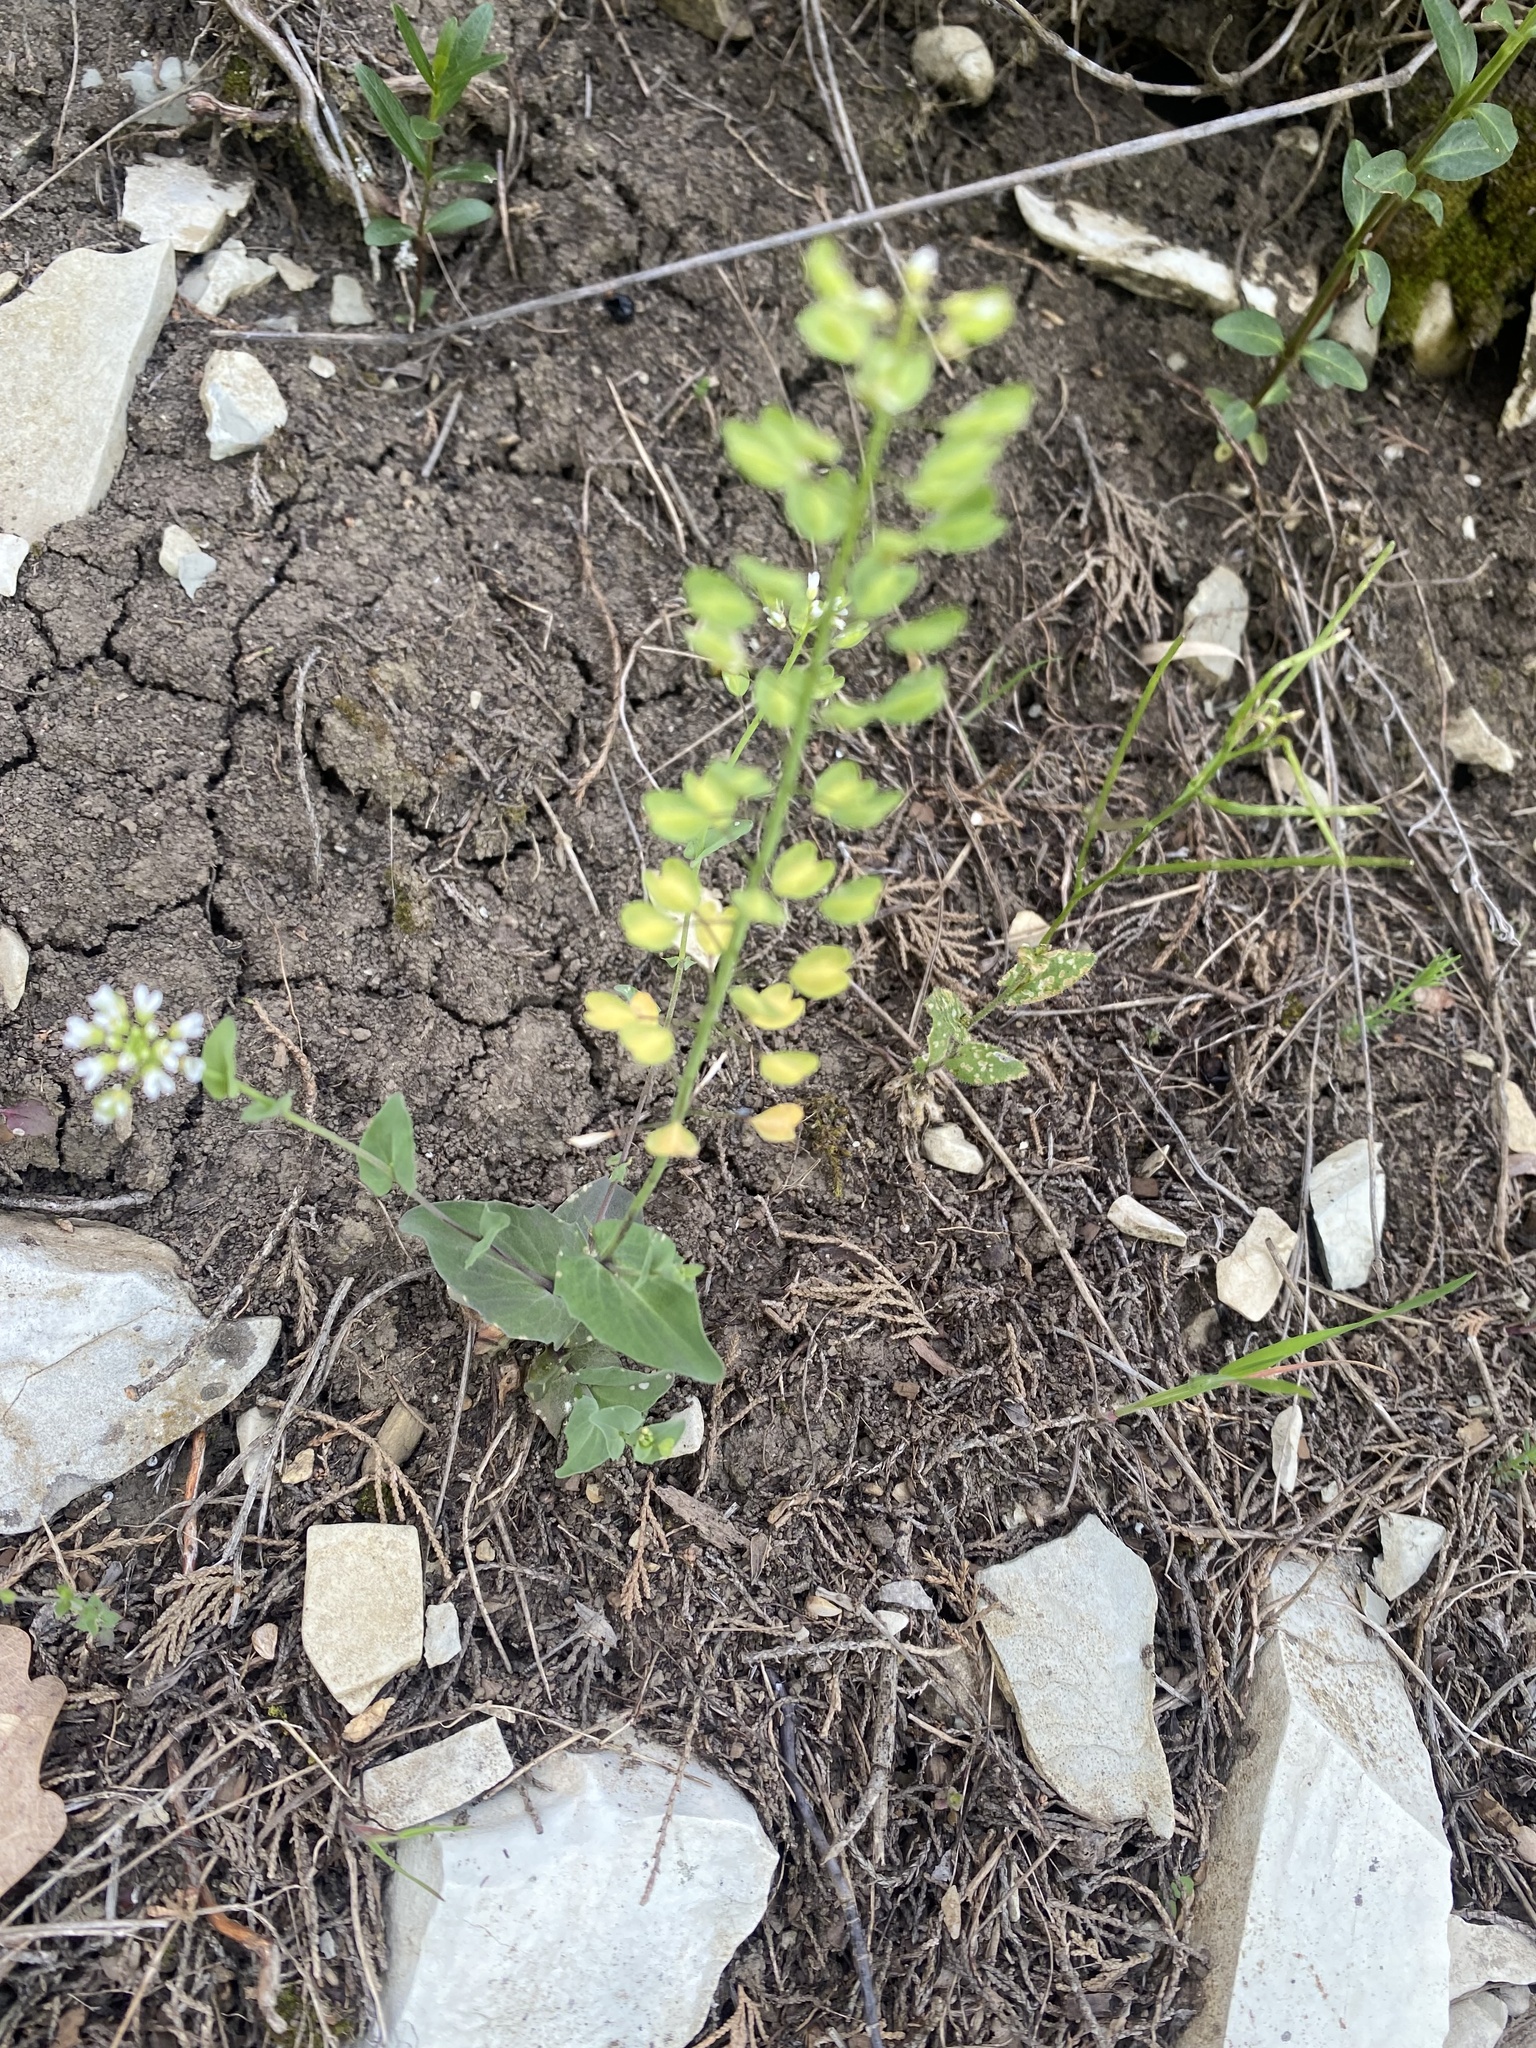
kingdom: Plantae
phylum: Tracheophyta
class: Magnoliopsida
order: Brassicales
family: Brassicaceae
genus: Noccaea
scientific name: Noccaea perfoliata
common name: Perfoliate pennycress
